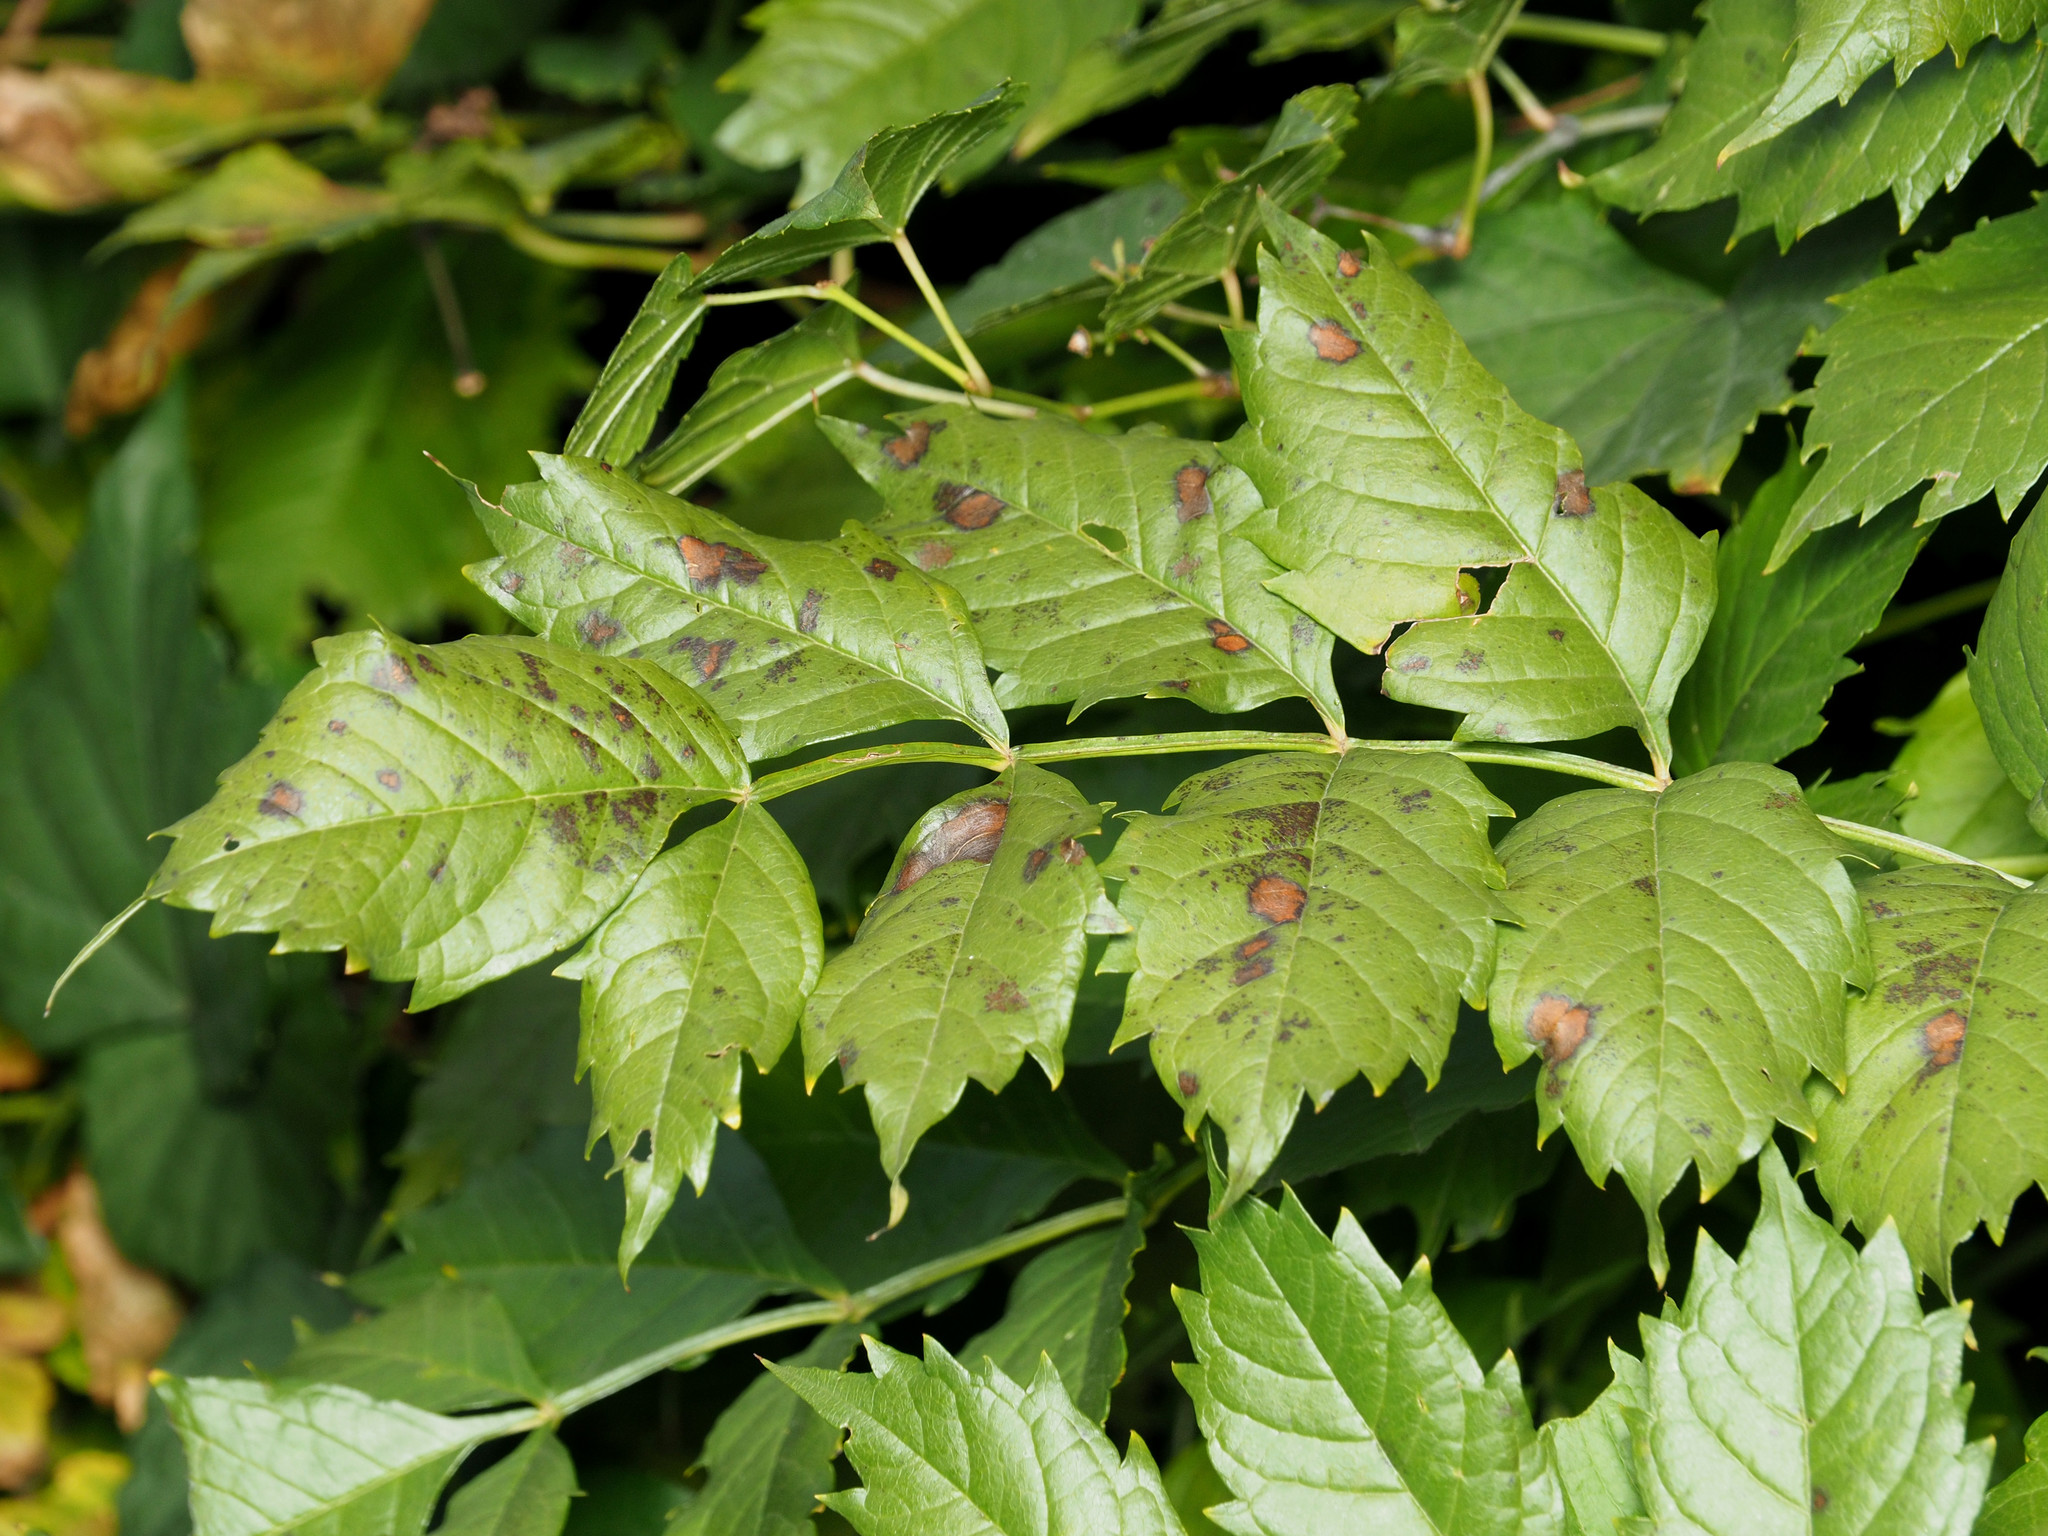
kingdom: Plantae
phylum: Tracheophyta
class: Magnoliopsida
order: Lamiales
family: Bignoniaceae
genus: Campsis
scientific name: Campsis radicans
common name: Trumpet-creeper
